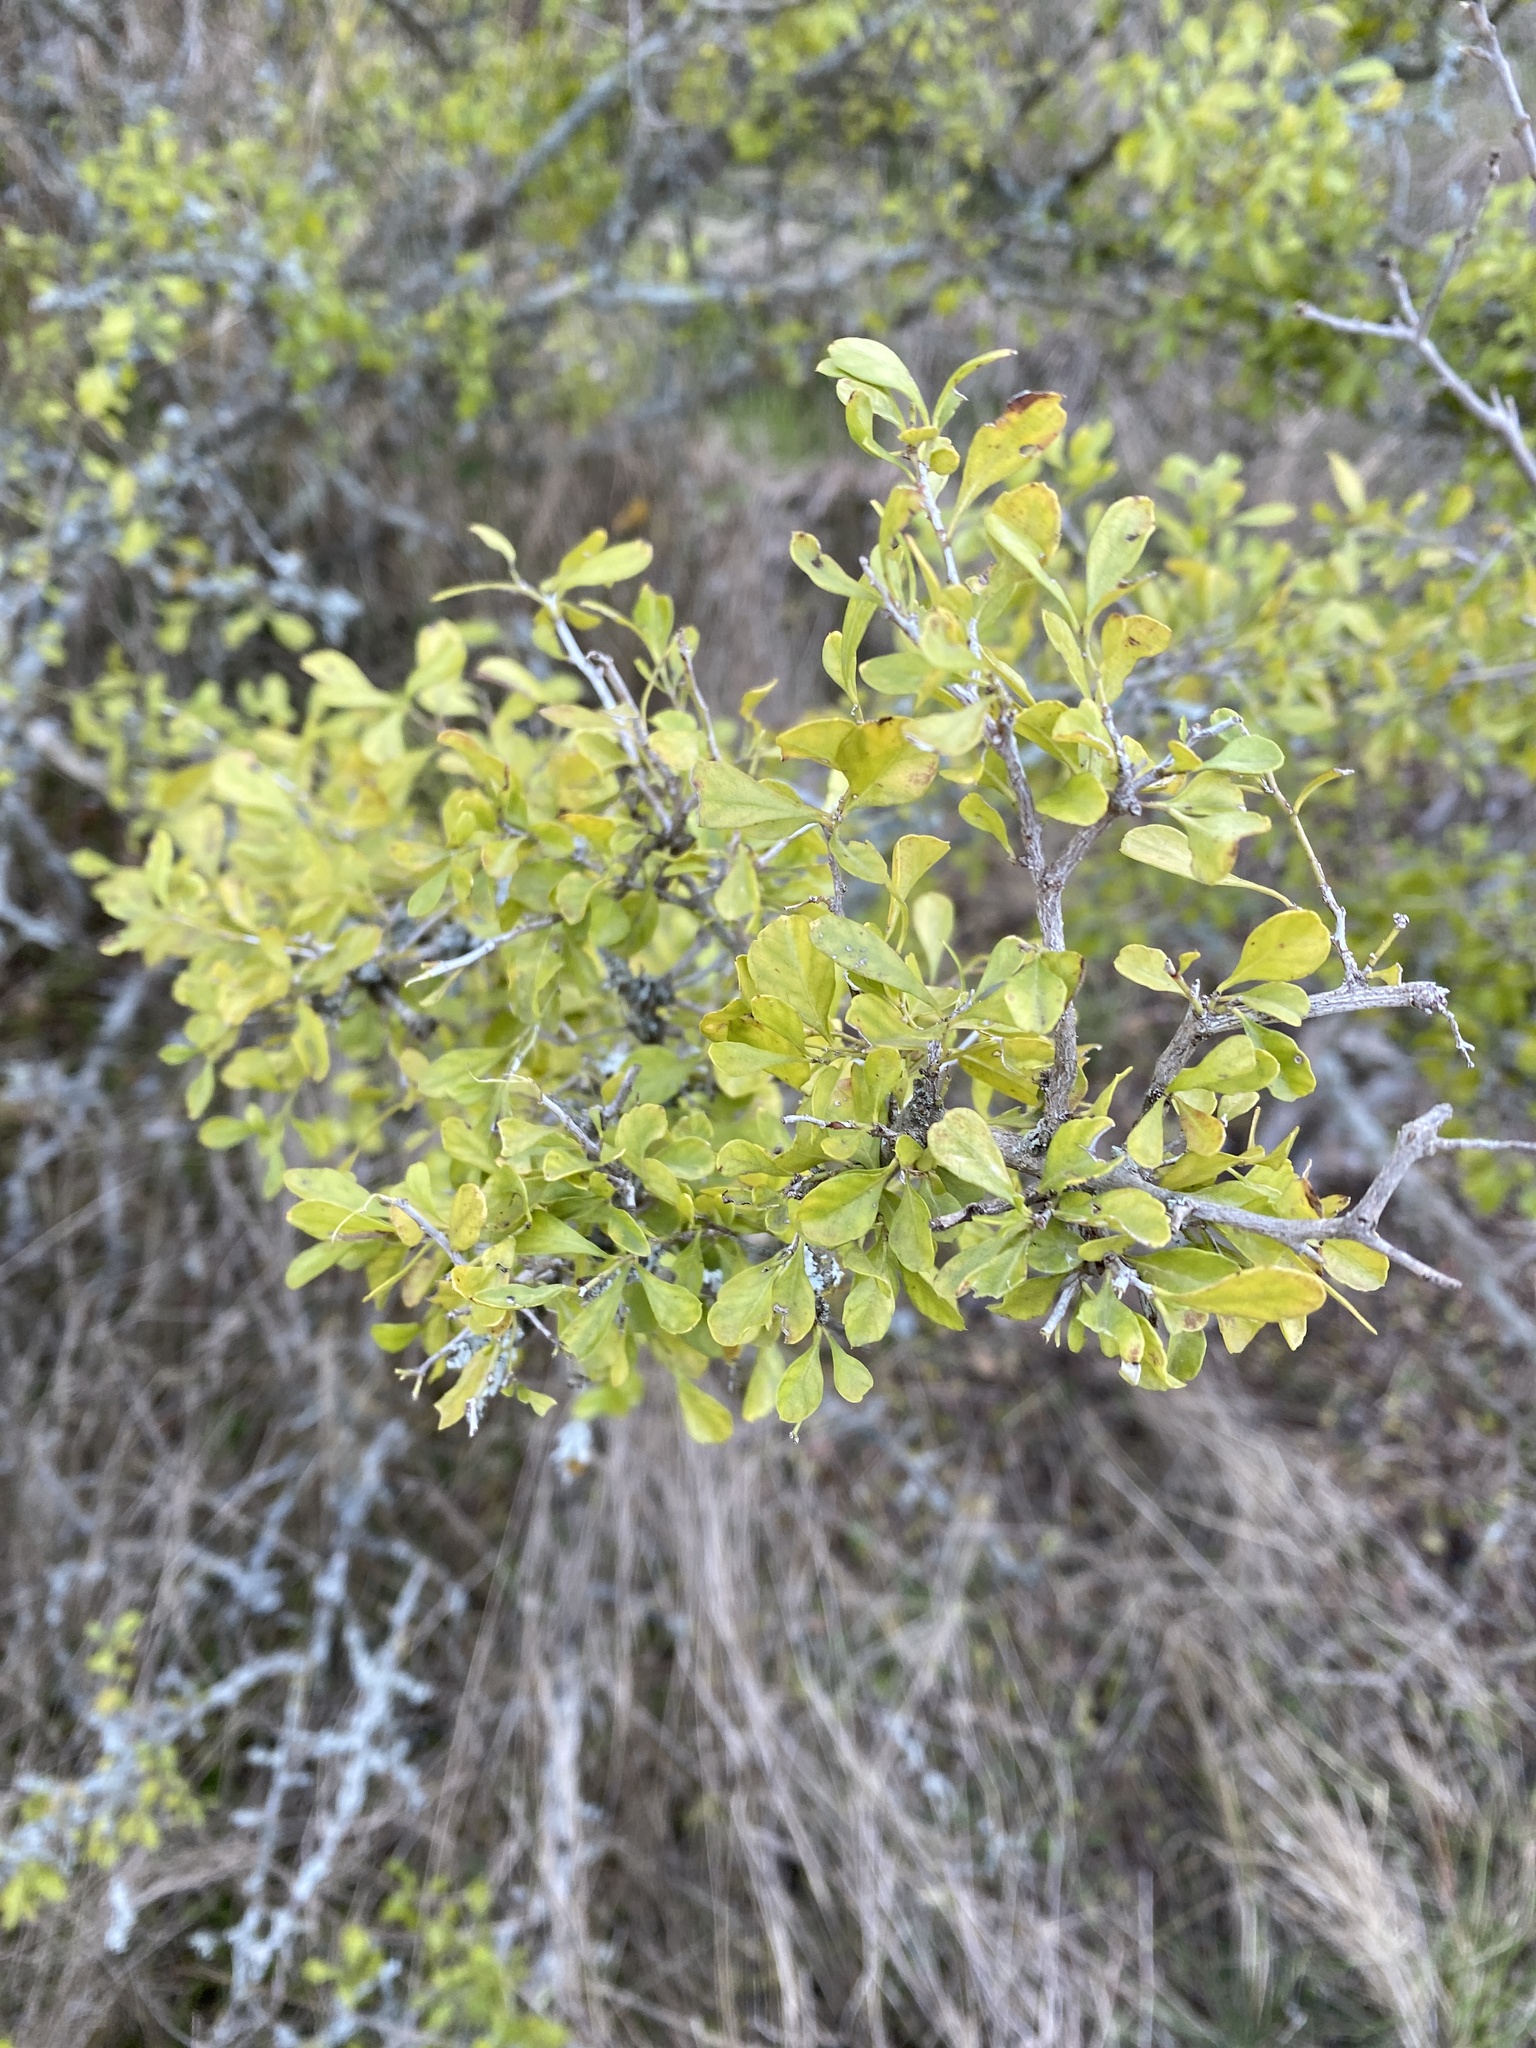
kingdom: Plantae
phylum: Tracheophyta
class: Magnoliopsida
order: Rosales
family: Rhamnaceae
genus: Condalia
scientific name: Condalia hookeri
